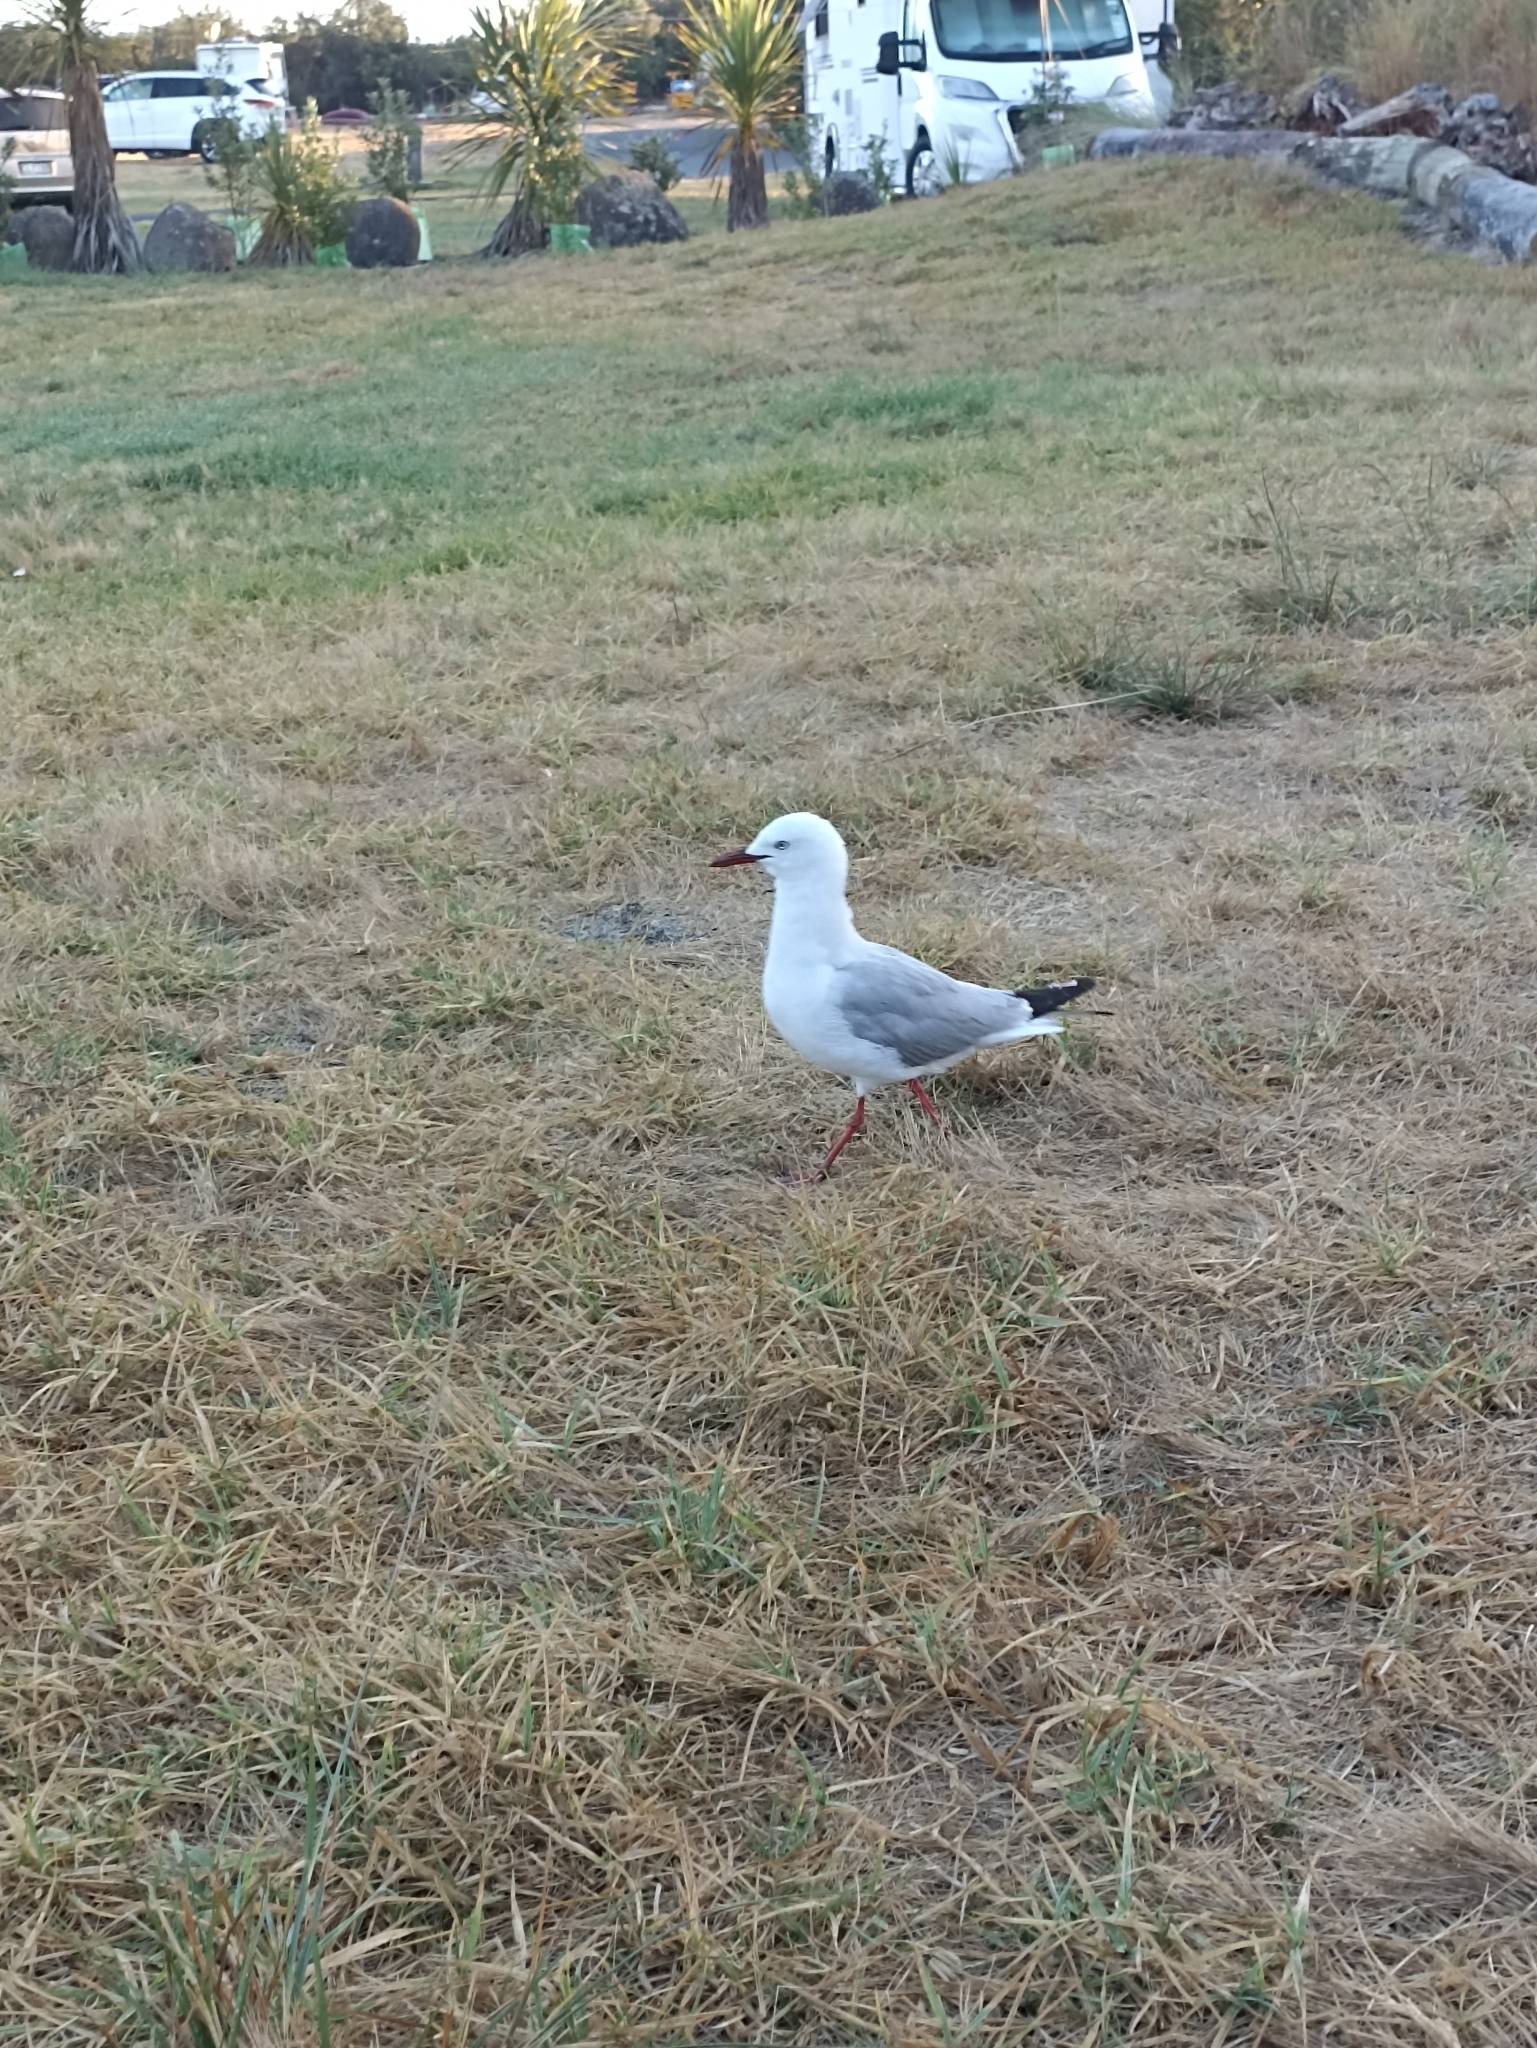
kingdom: Animalia
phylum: Chordata
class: Aves
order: Charadriiformes
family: Laridae
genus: Chroicocephalus
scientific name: Chroicocephalus novaehollandiae
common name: Silver gull
